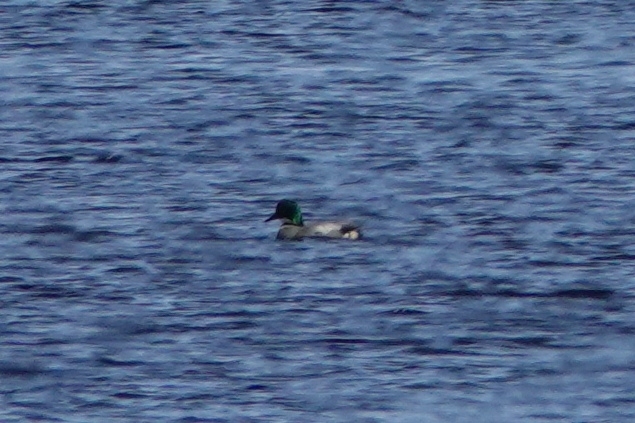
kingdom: Animalia
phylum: Chordata
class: Aves
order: Anseriformes
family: Anatidae
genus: Mareca
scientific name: Mareca falcata
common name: Falcated duck
